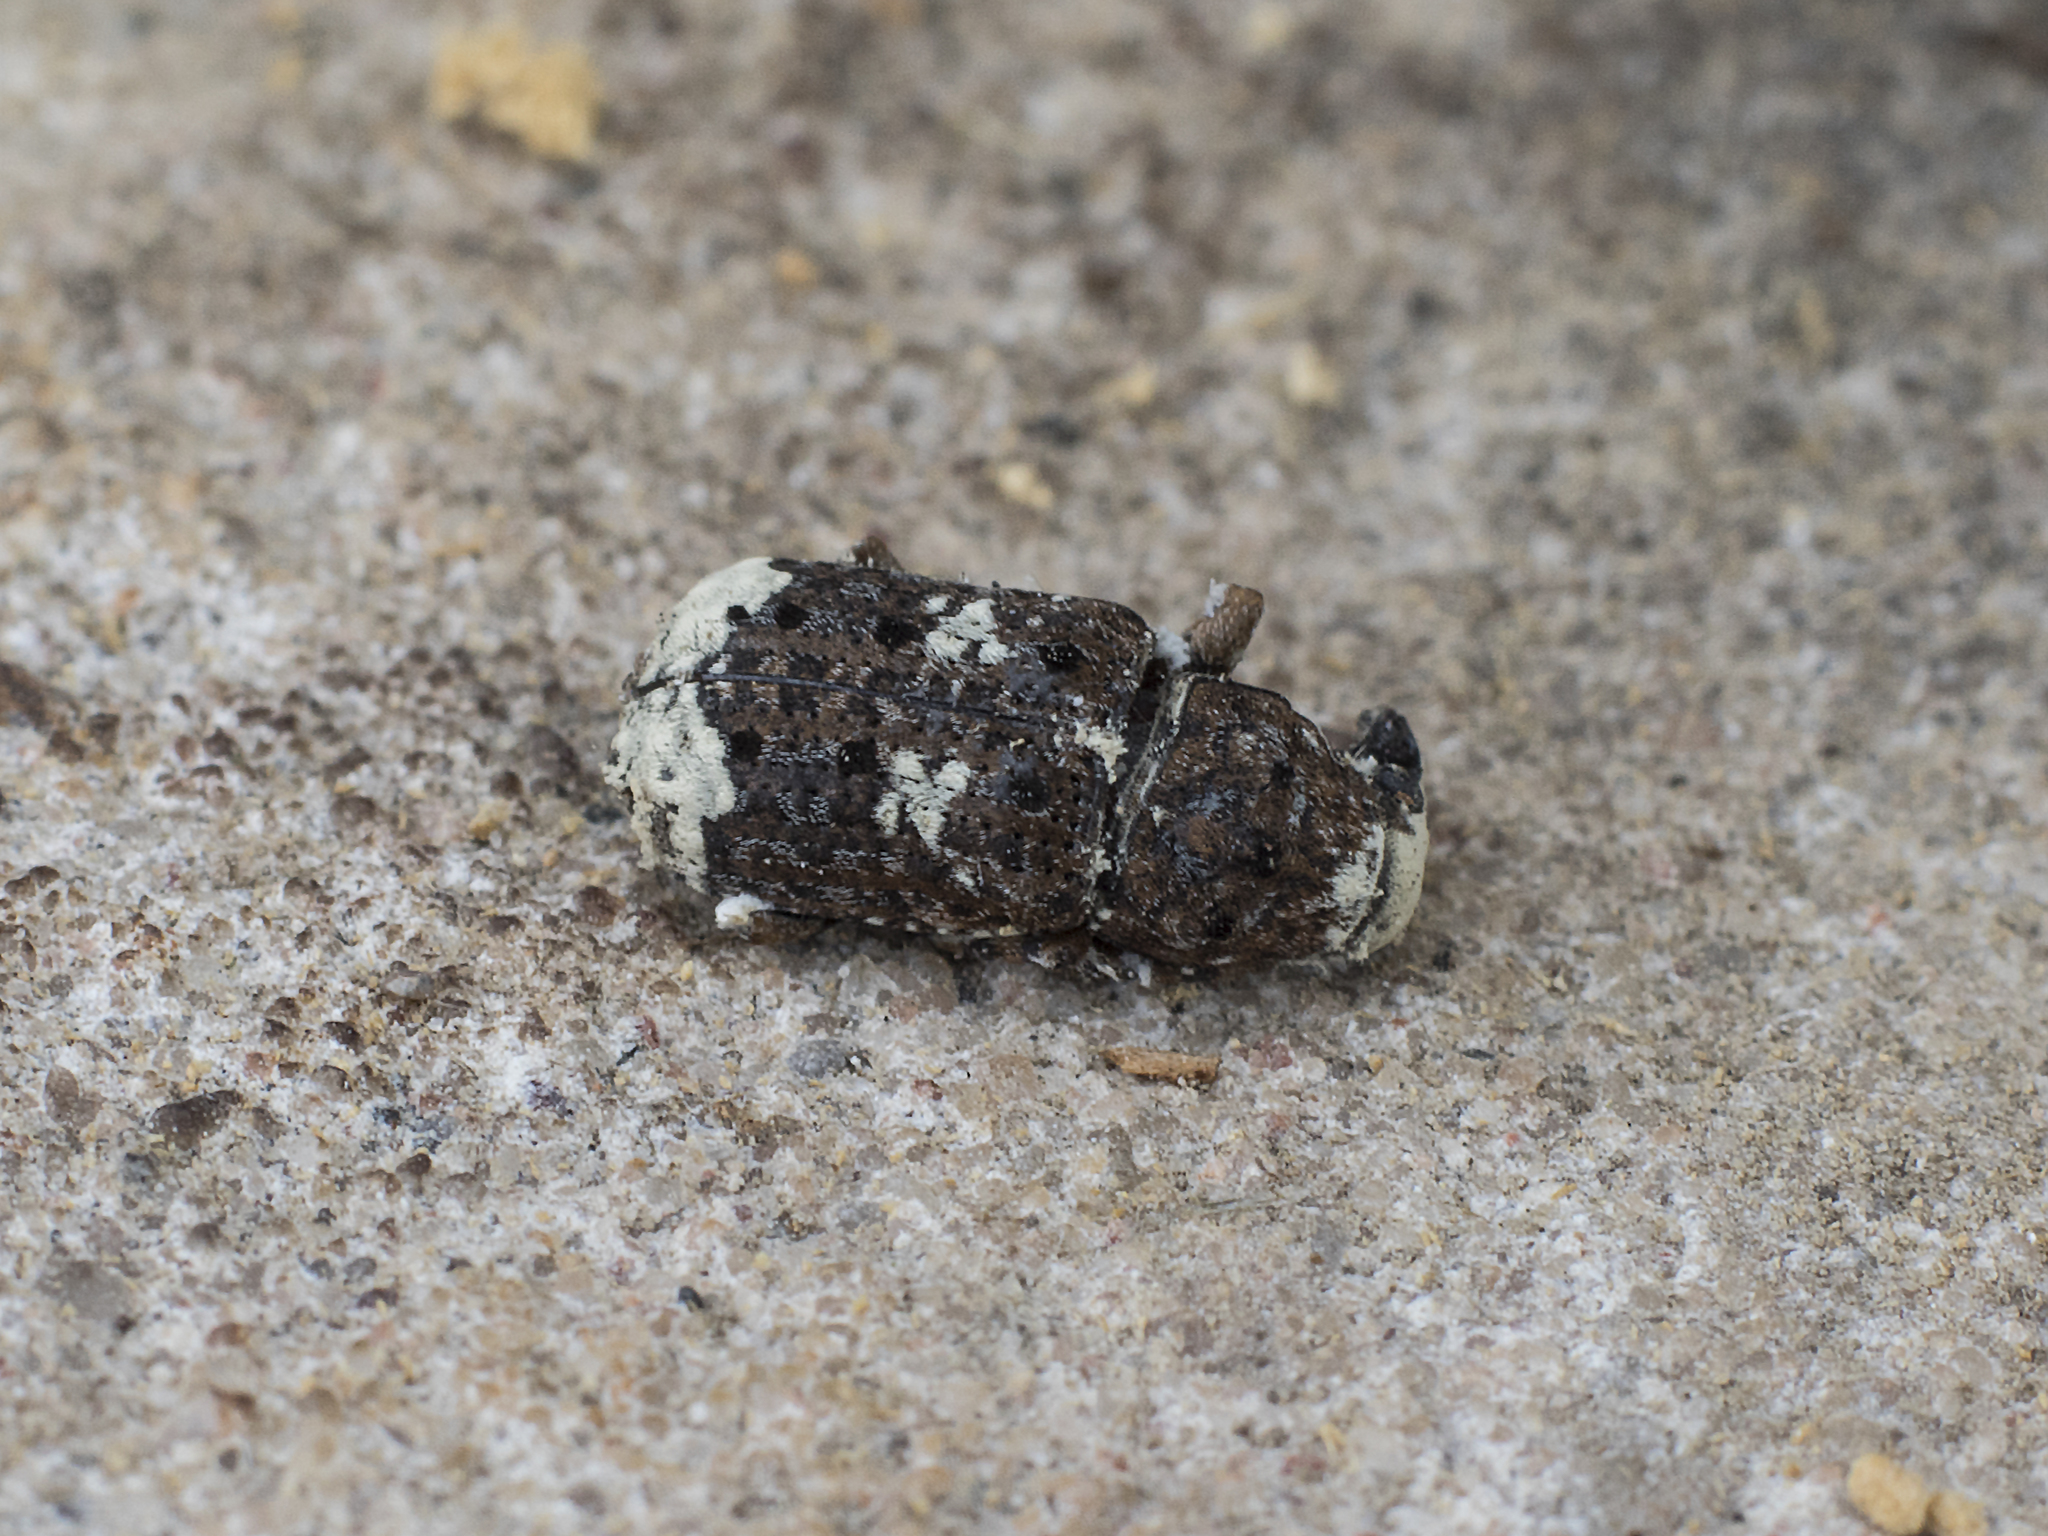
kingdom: Animalia
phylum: Arthropoda
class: Insecta
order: Coleoptera
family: Anthribidae
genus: Platystomos
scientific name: Platystomos albinus
